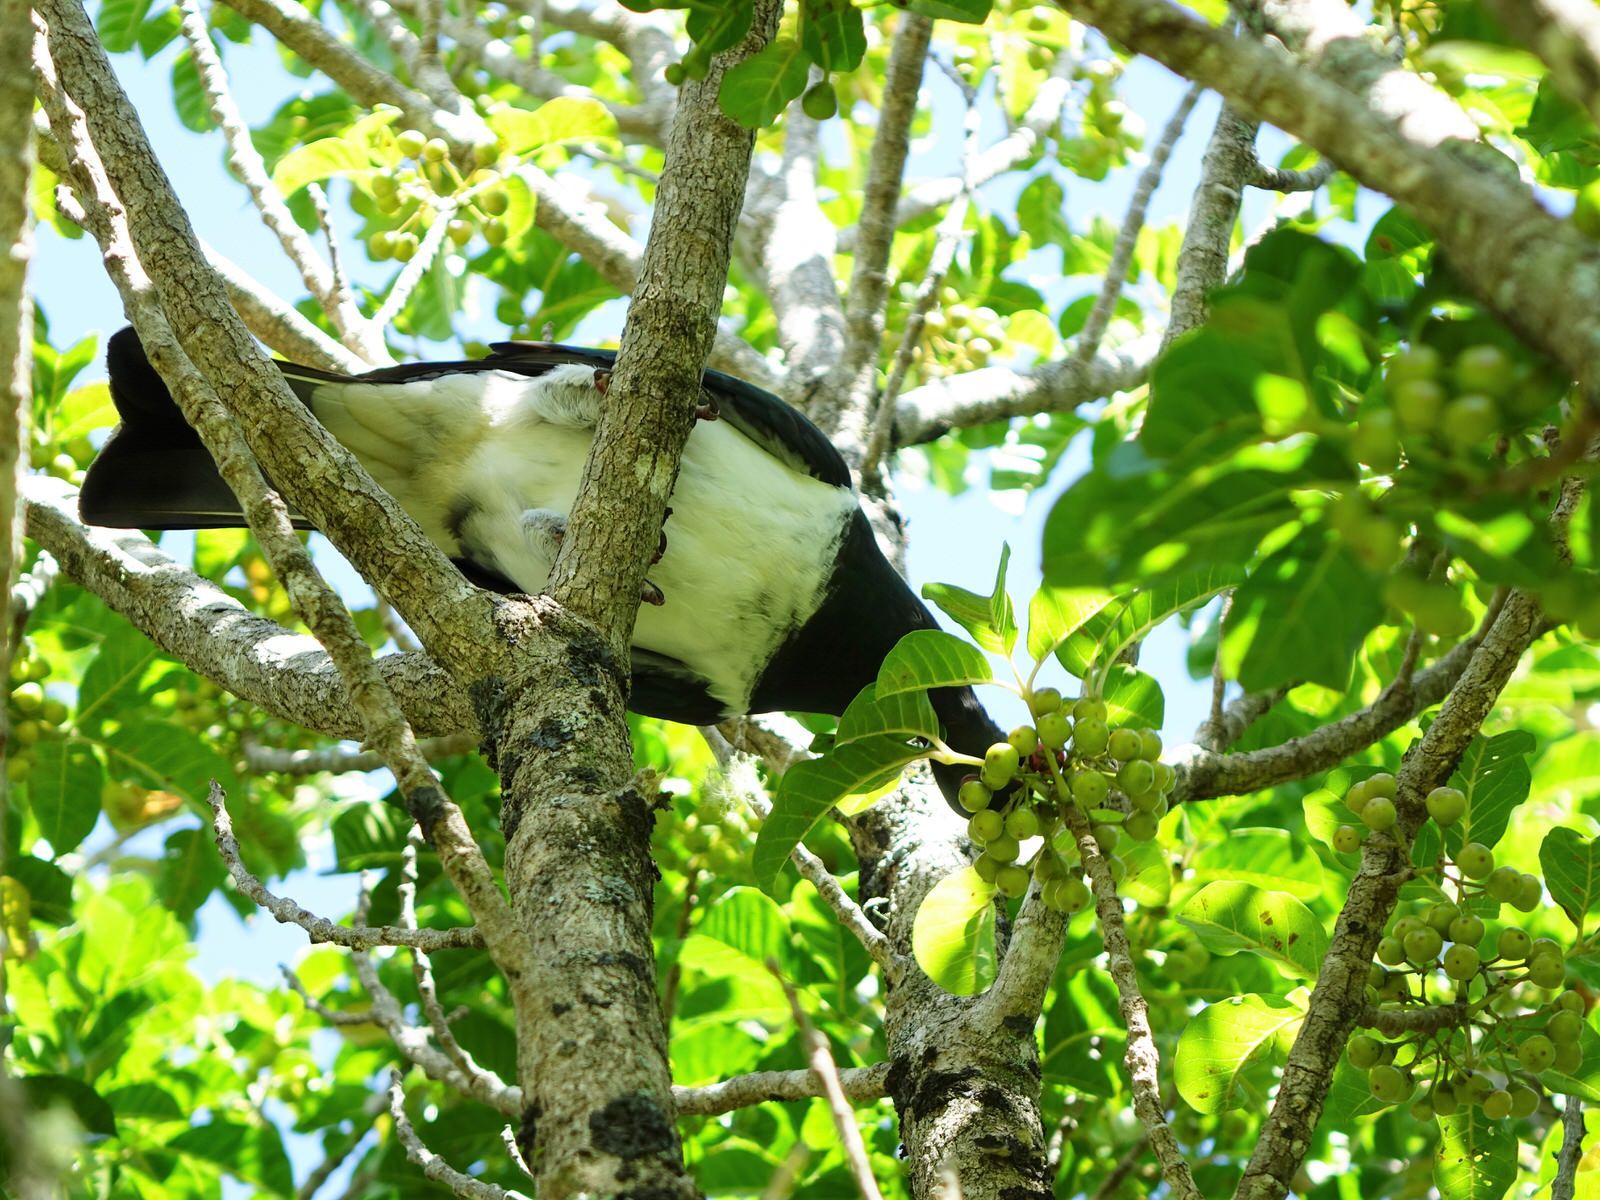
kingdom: Animalia
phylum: Chordata
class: Aves
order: Columbiformes
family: Columbidae
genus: Hemiphaga
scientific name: Hemiphaga novaeseelandiae
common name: New zealand pigeon
